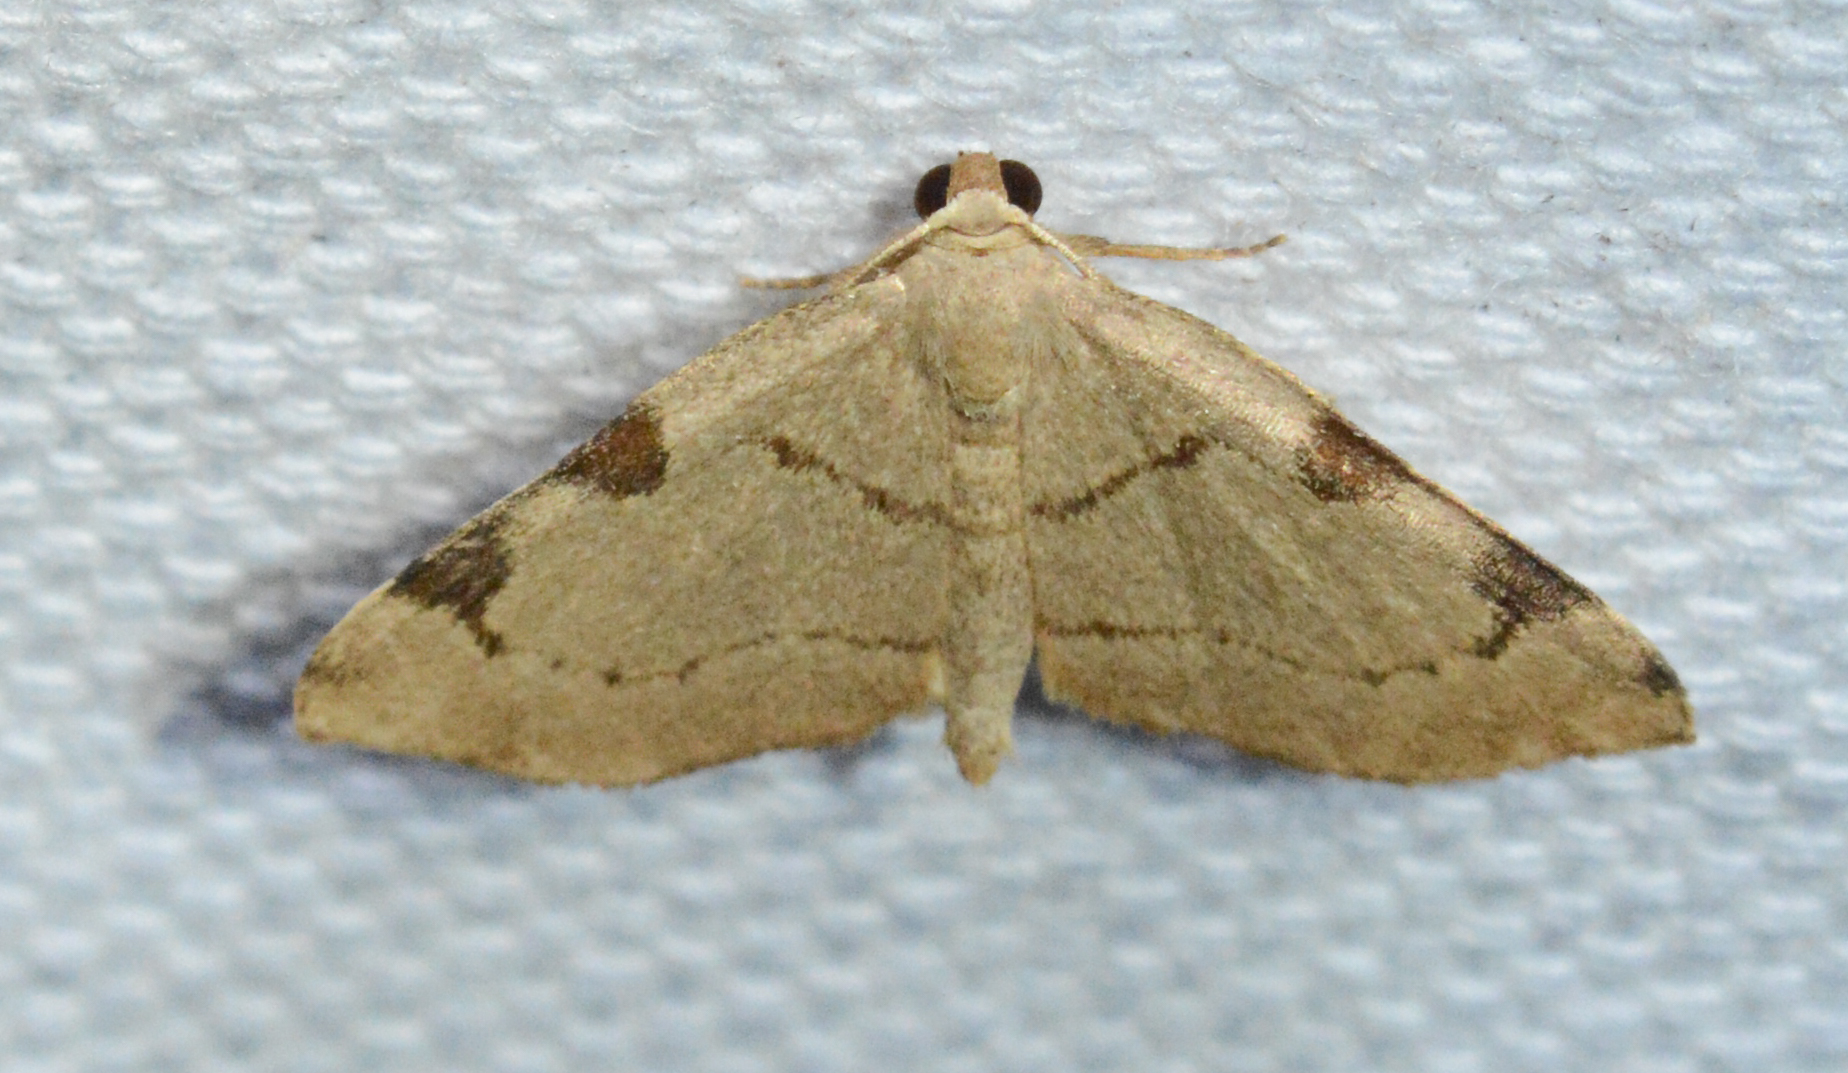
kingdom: Animalia
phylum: Arthropoda
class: Insecta
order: Lepidoptera
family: Geometridae
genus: Heterophleps
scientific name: Heterophleps triguttaria
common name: Three-spotted fillip
